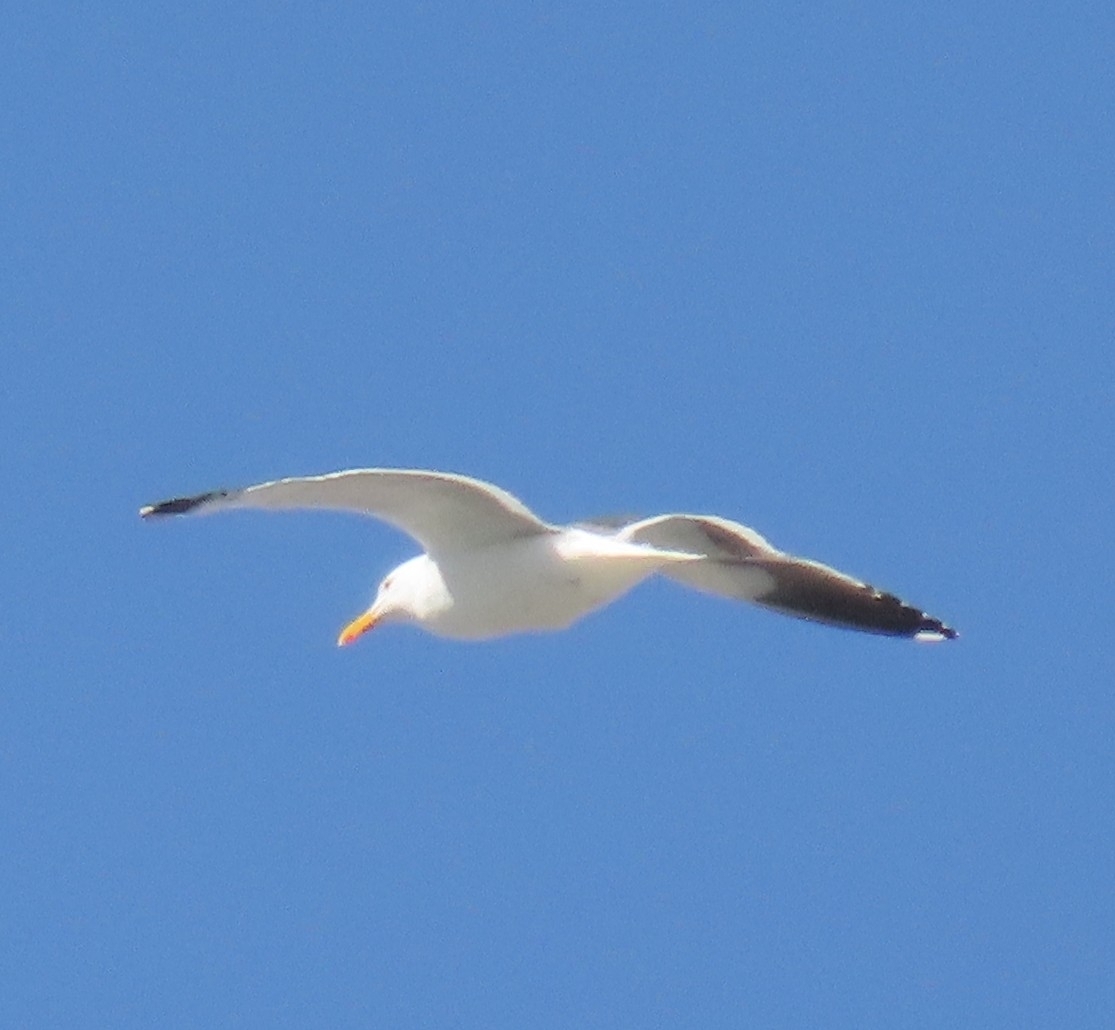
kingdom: Animalia
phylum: Chordata
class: Aves
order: Charadriiformes
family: Laridae
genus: Larus
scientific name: Larus occidentalis
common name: Western gull
